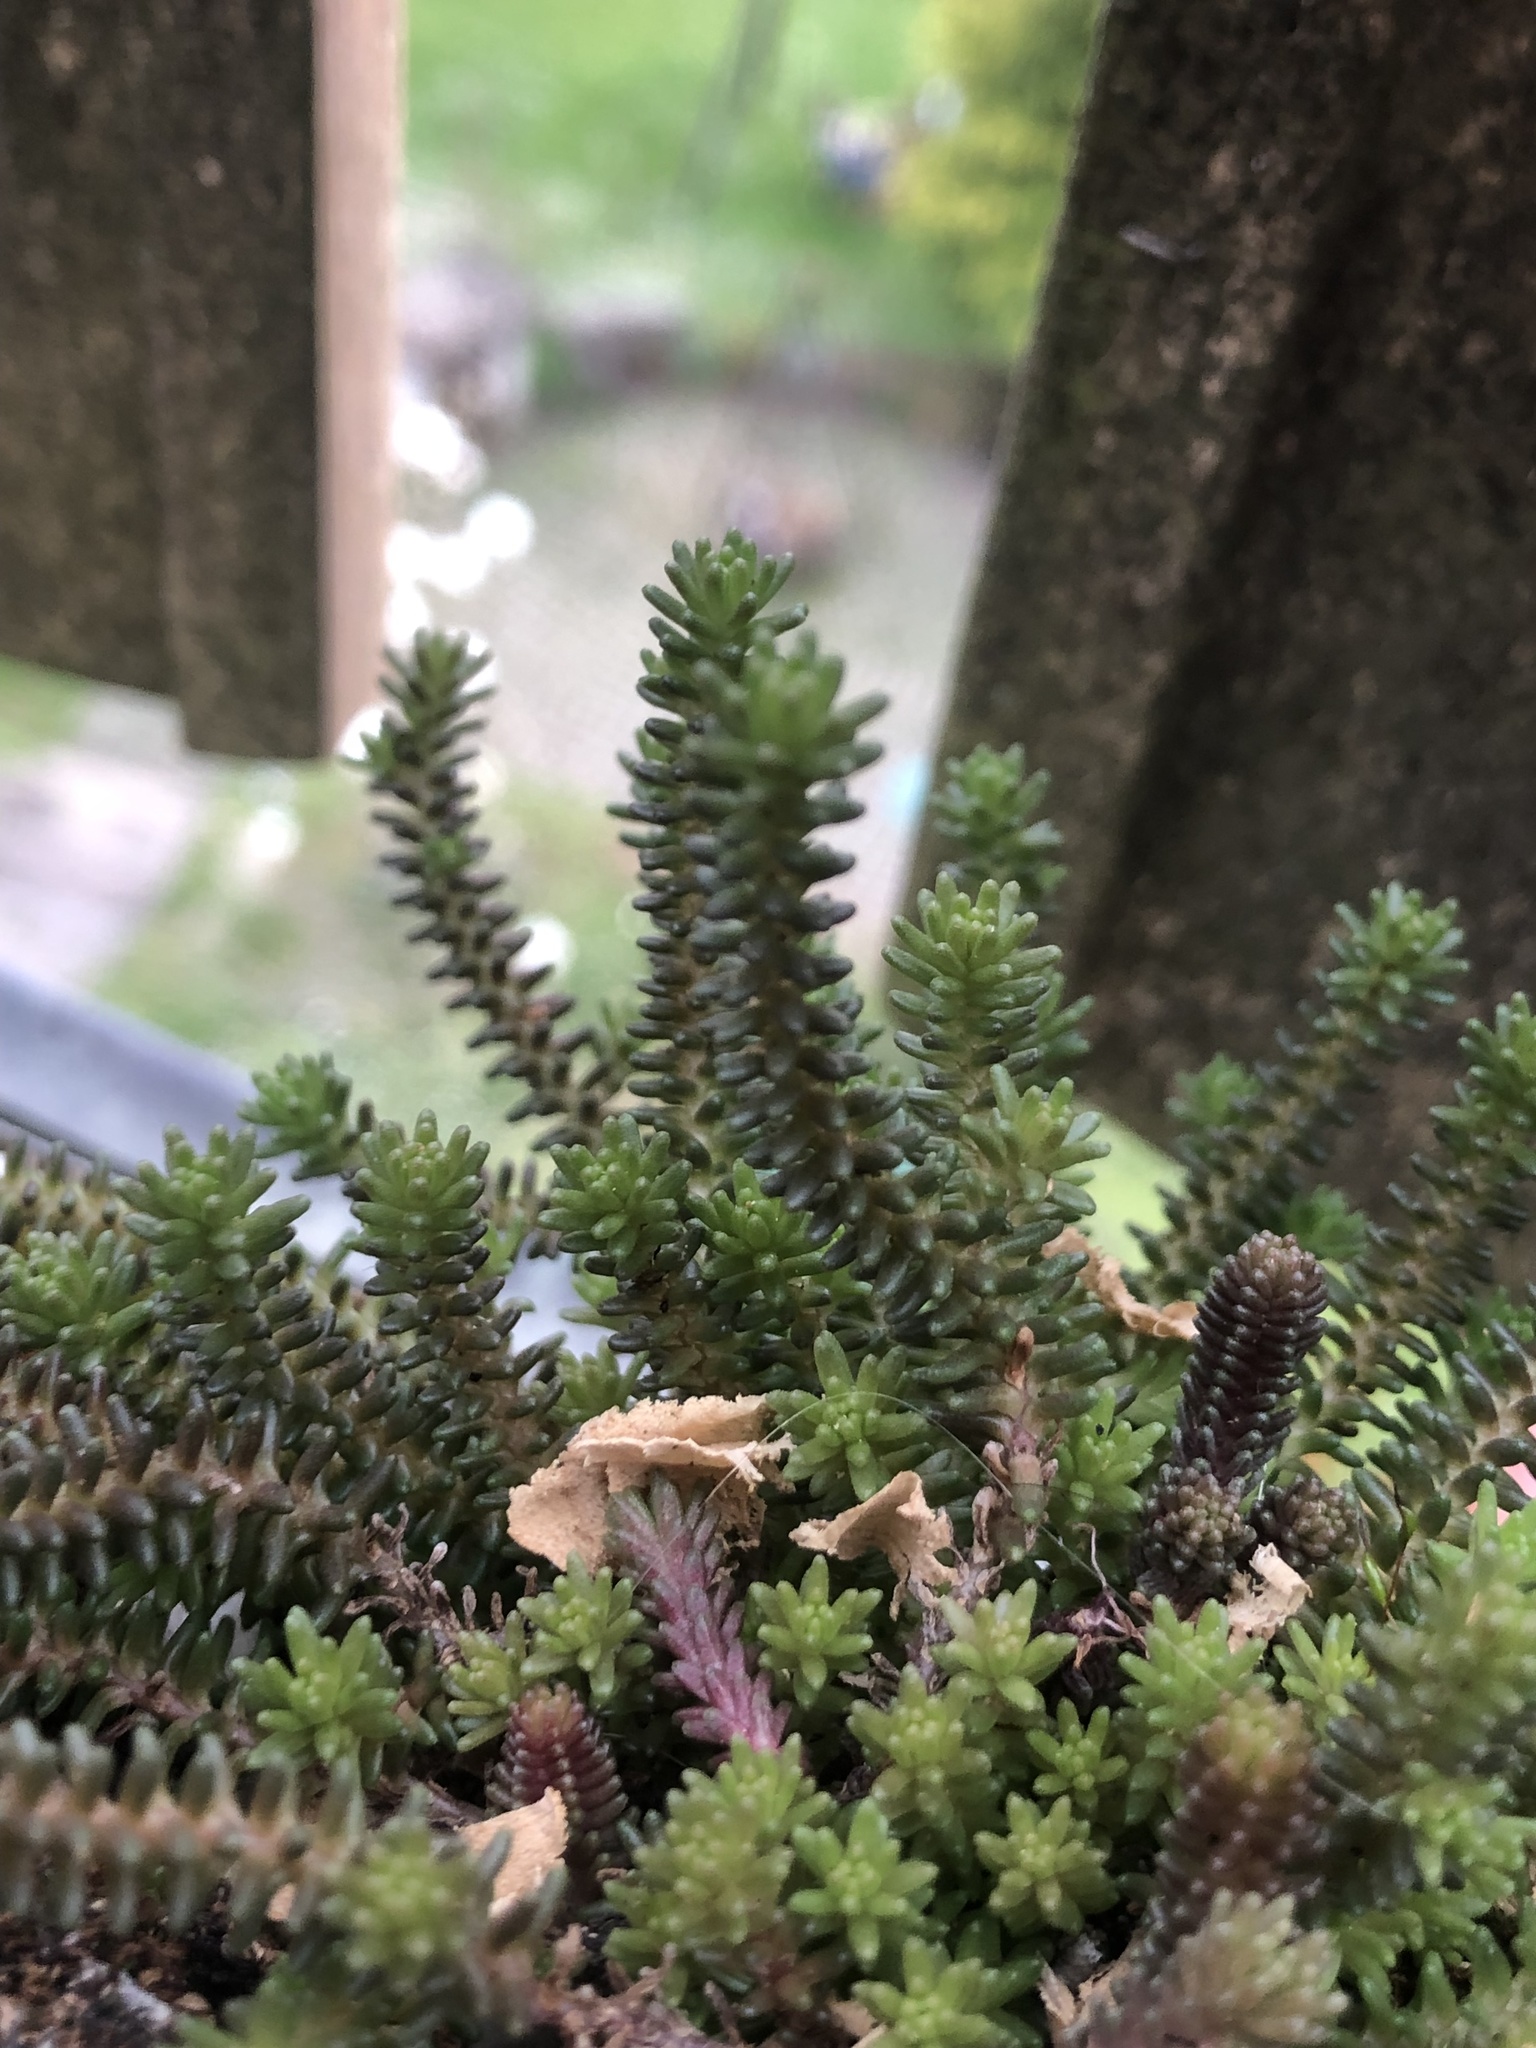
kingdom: Plantae
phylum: Tracheophyta
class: Magnoliopsida
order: Saxifragales
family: Crassulaceae
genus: Sedum
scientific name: Sedum sexangulare
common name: Tasteless stonecrop
